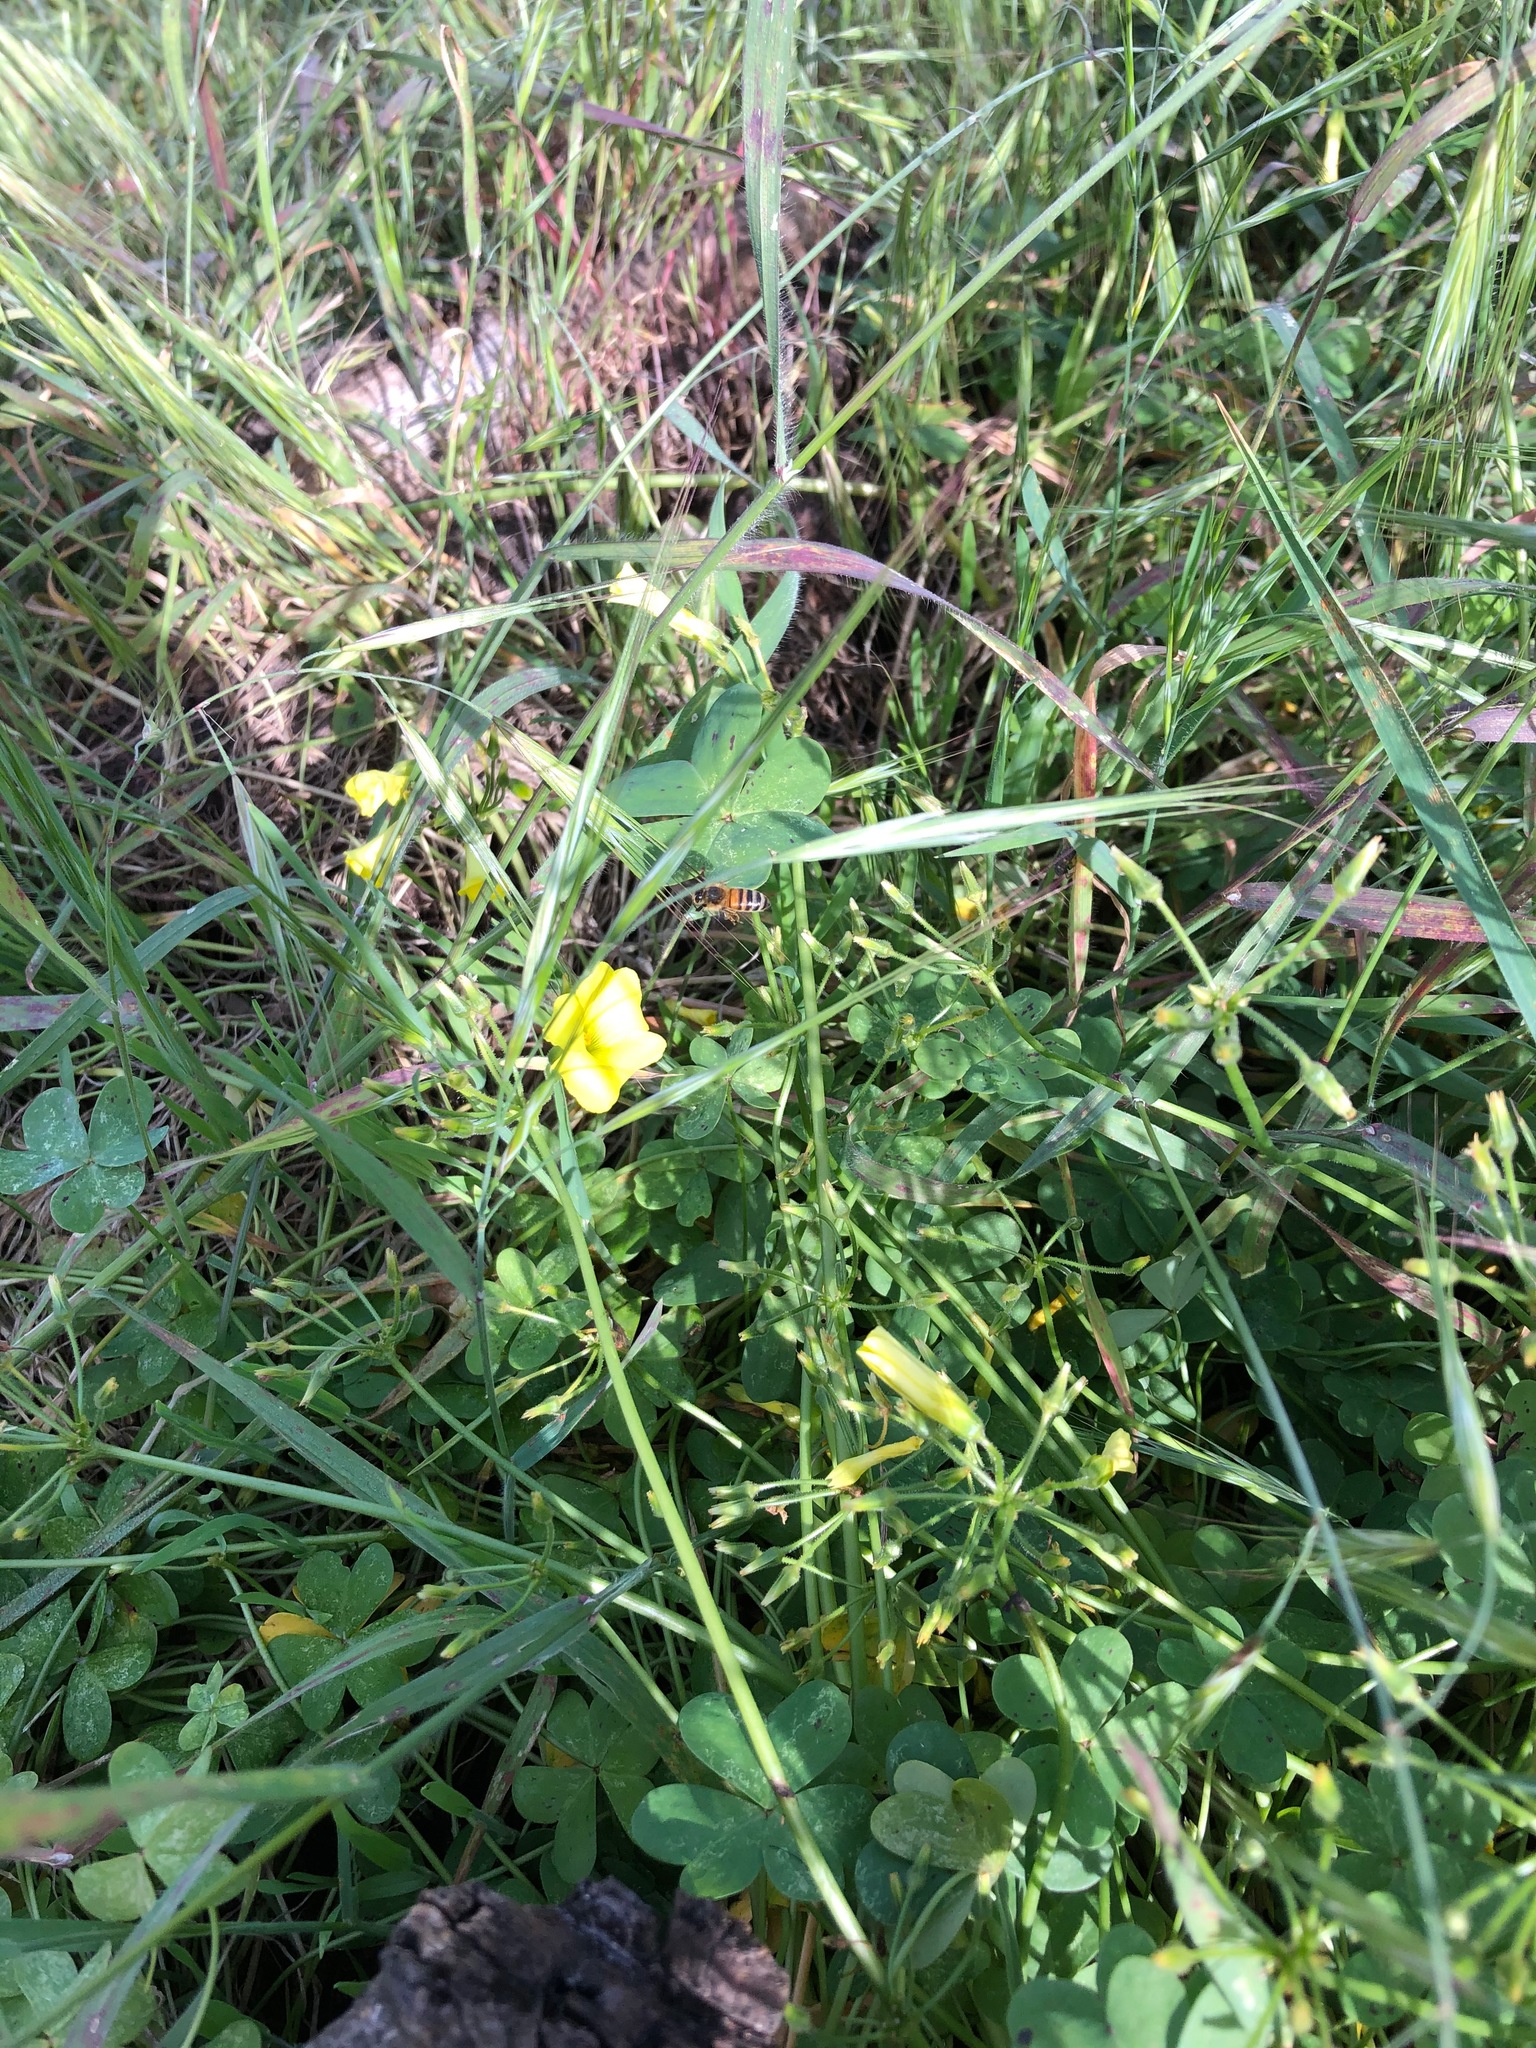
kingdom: Plantae
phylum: Tracheophyta
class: Magnoliopsida
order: Oxalidales
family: Oxalidaceae
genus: Oxalis
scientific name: Oxalis pes-caprae
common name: Bermuda-buttercup
